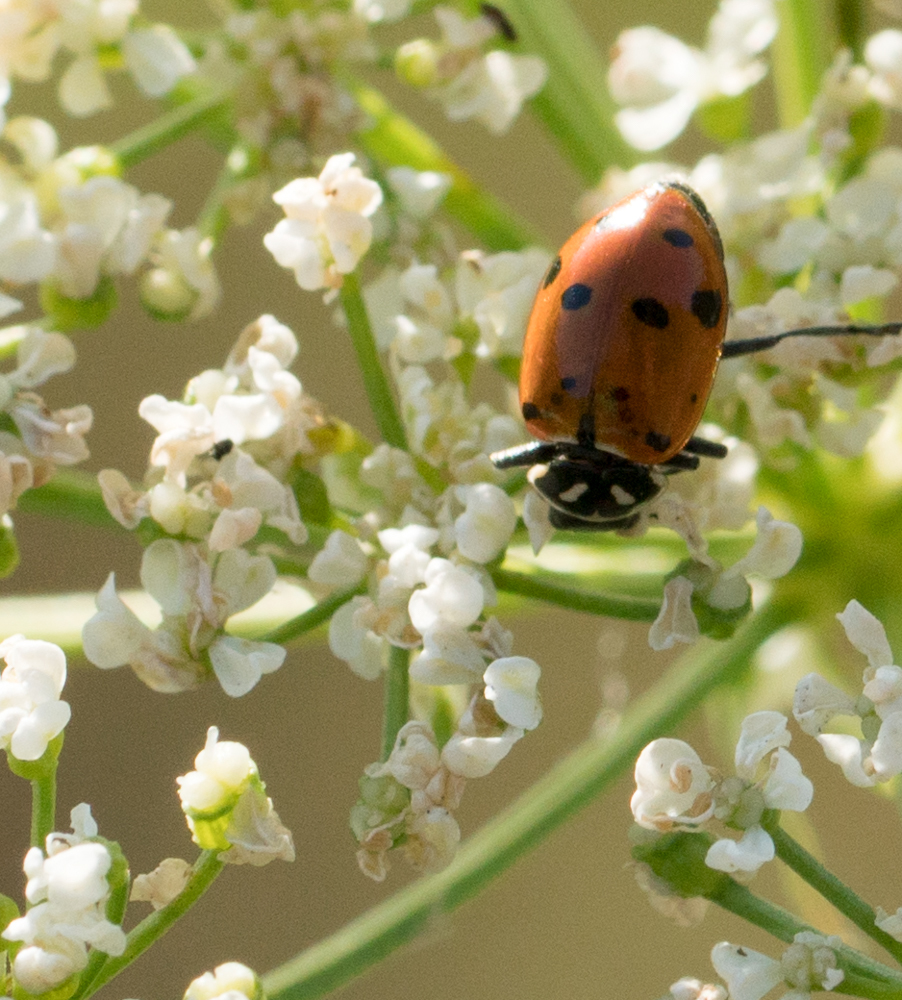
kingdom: Animalia
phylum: Arthropoda
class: Insecta
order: Coleoptera
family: Coccinellidae
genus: Hippodamia
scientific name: Hippodamia convergens
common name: Convergent lady beetle
